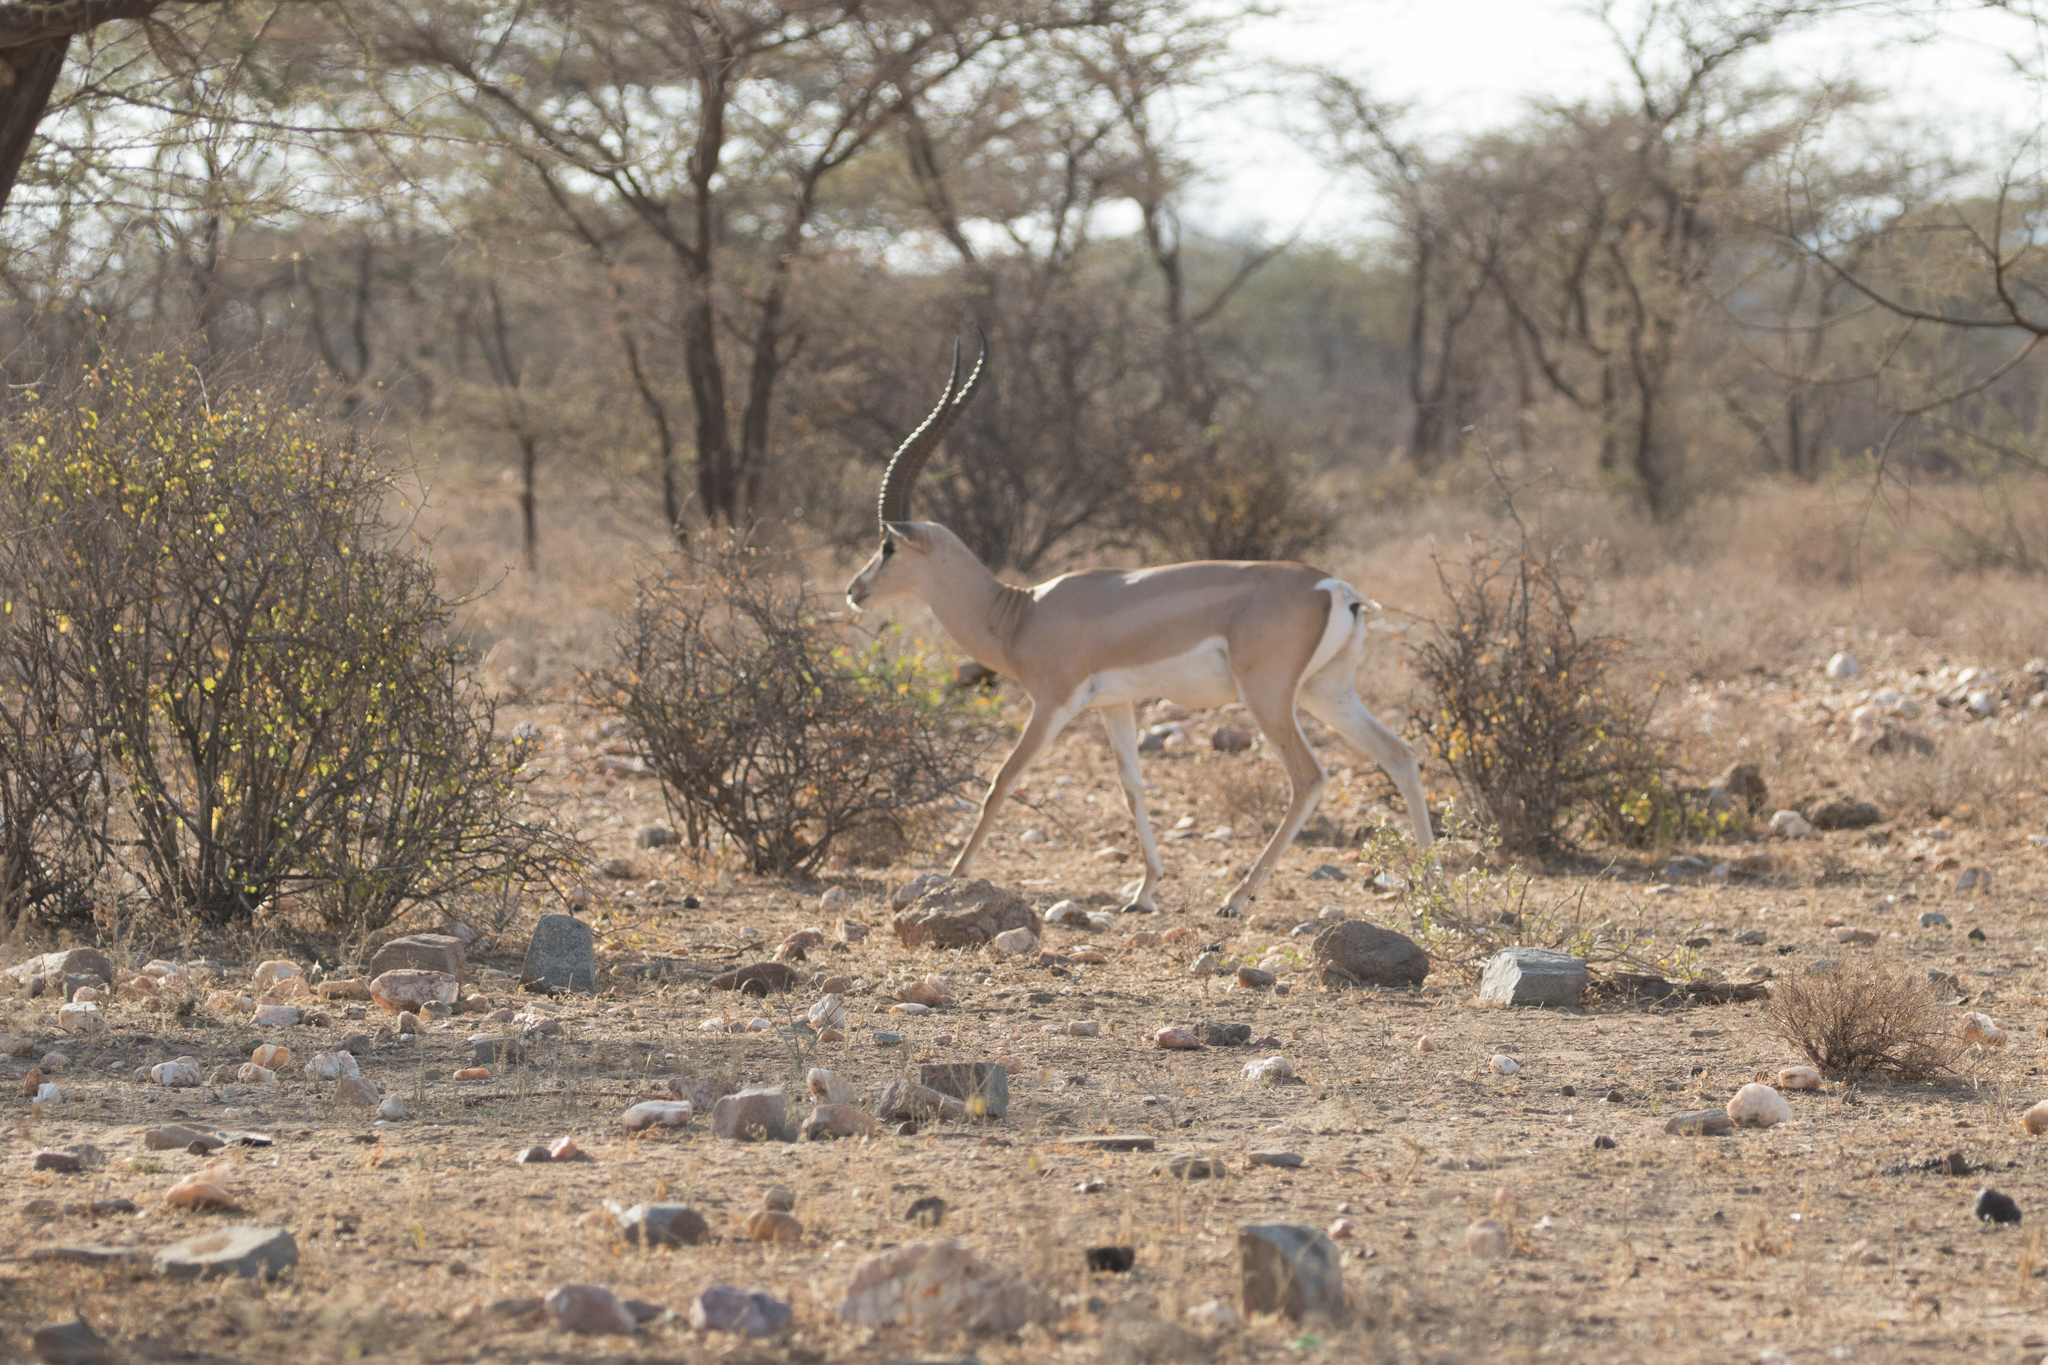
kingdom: Animalia
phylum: Chordata
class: Mammalia
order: Artiodactyla
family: Bovidae
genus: Nanger
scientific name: Nanger granti
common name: Grant's gazelle
